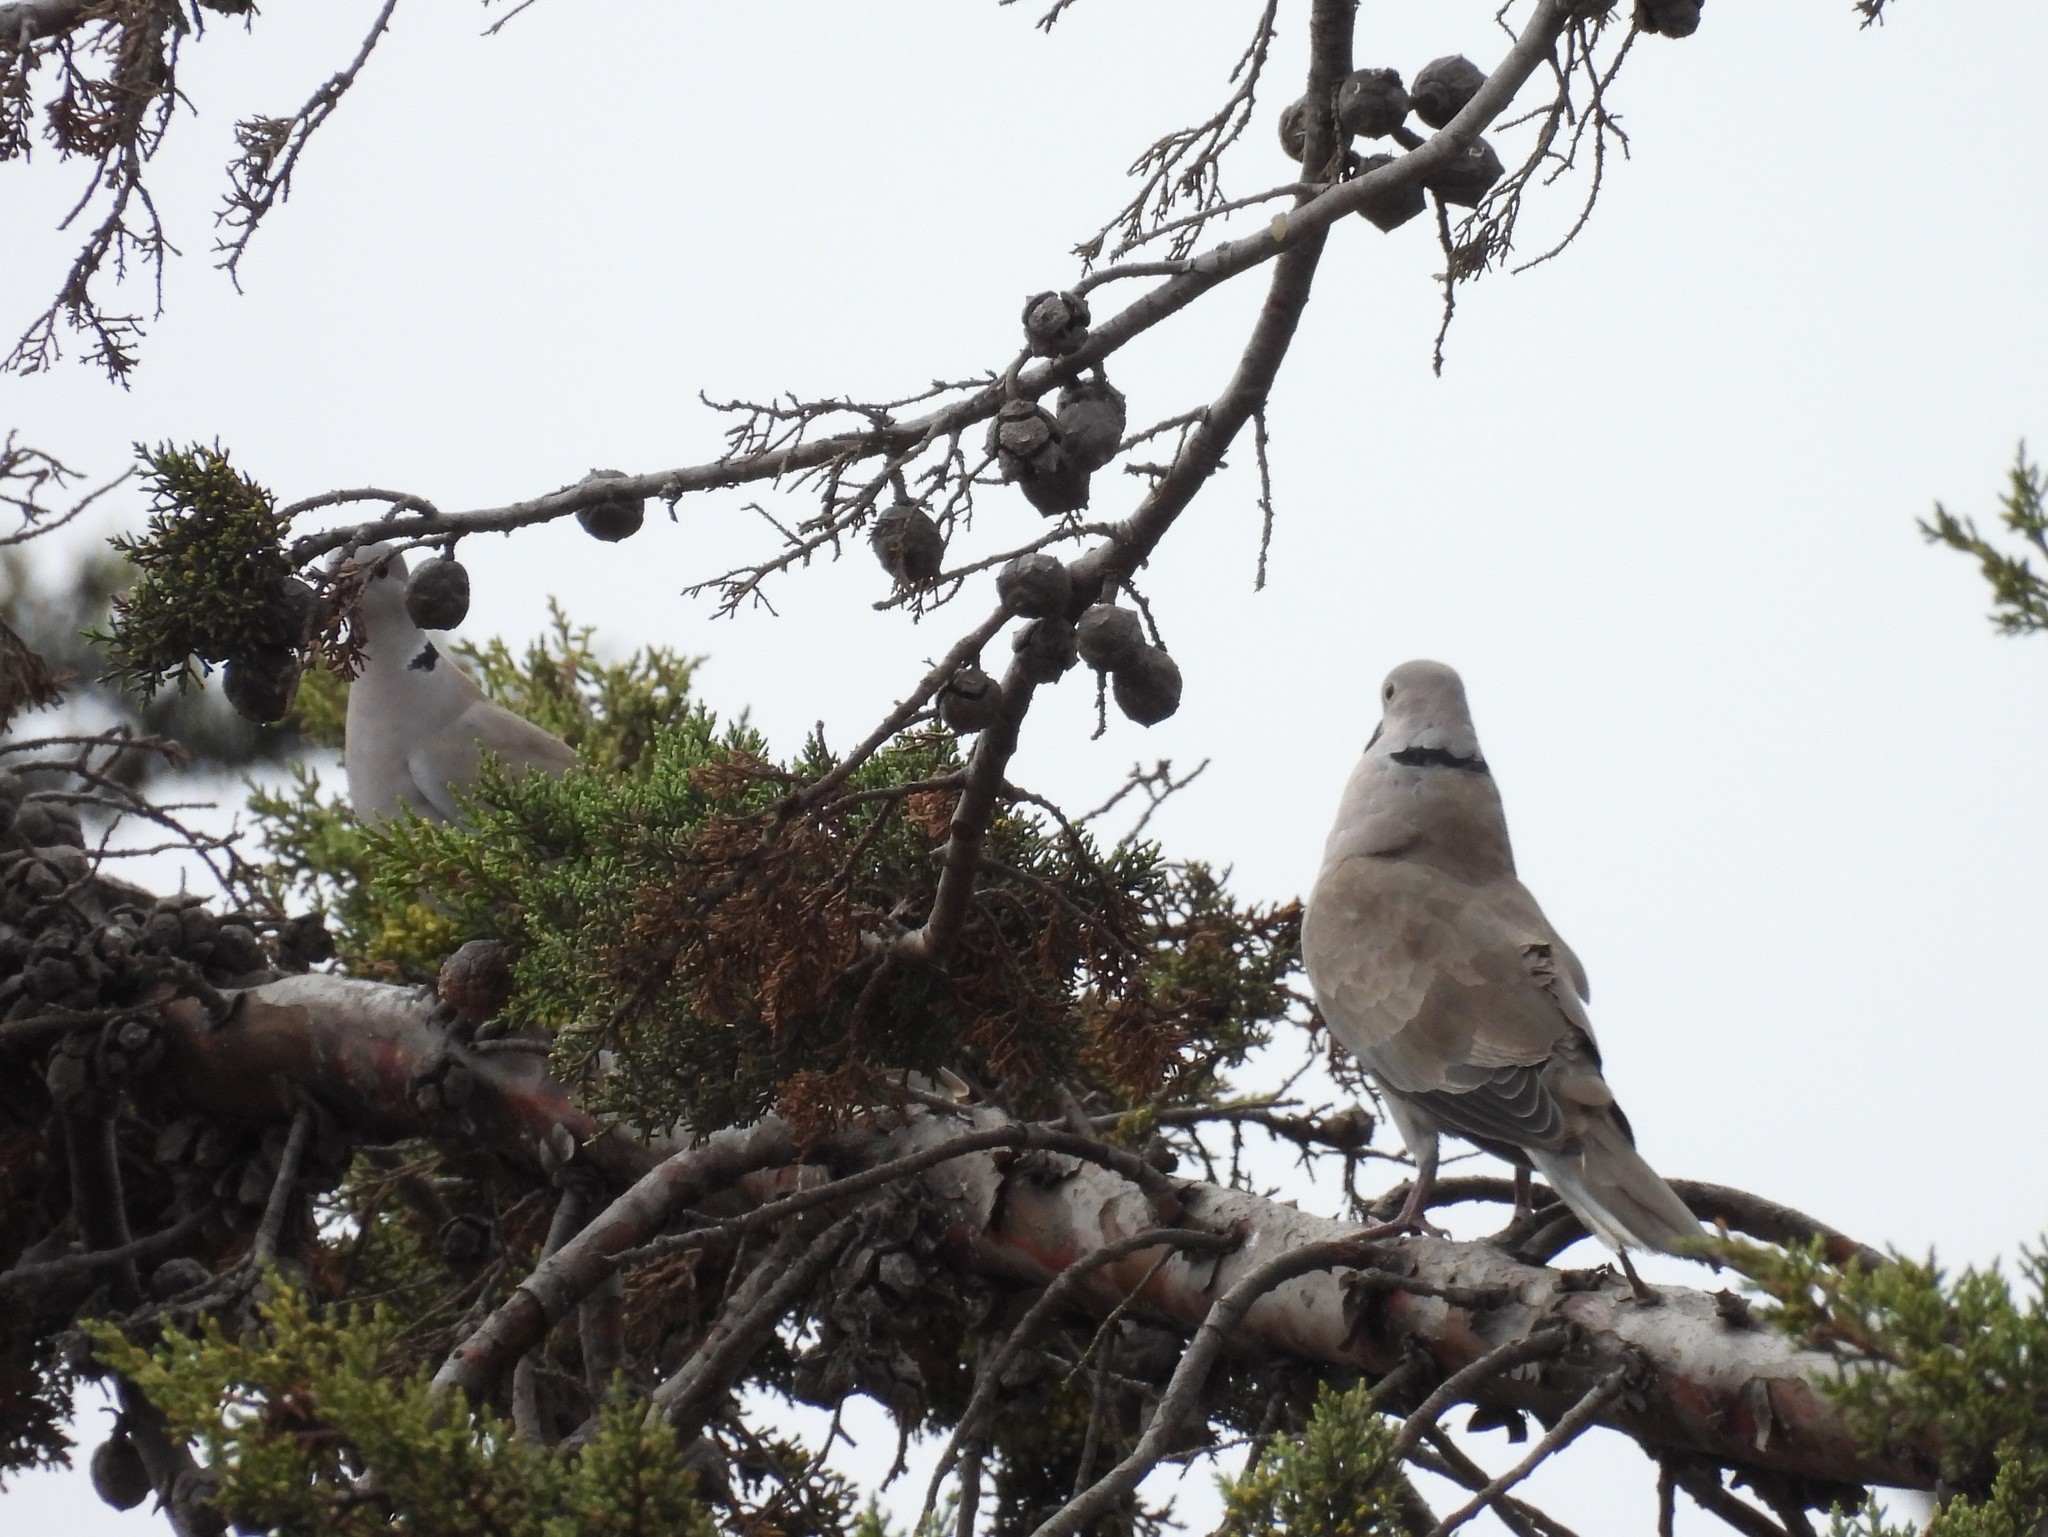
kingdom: Animalia
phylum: Chordata
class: Aves
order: Columbiformes
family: Columbidae
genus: Streptopelia
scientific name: Streptopelia decaocto
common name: Eurasian collared dove
